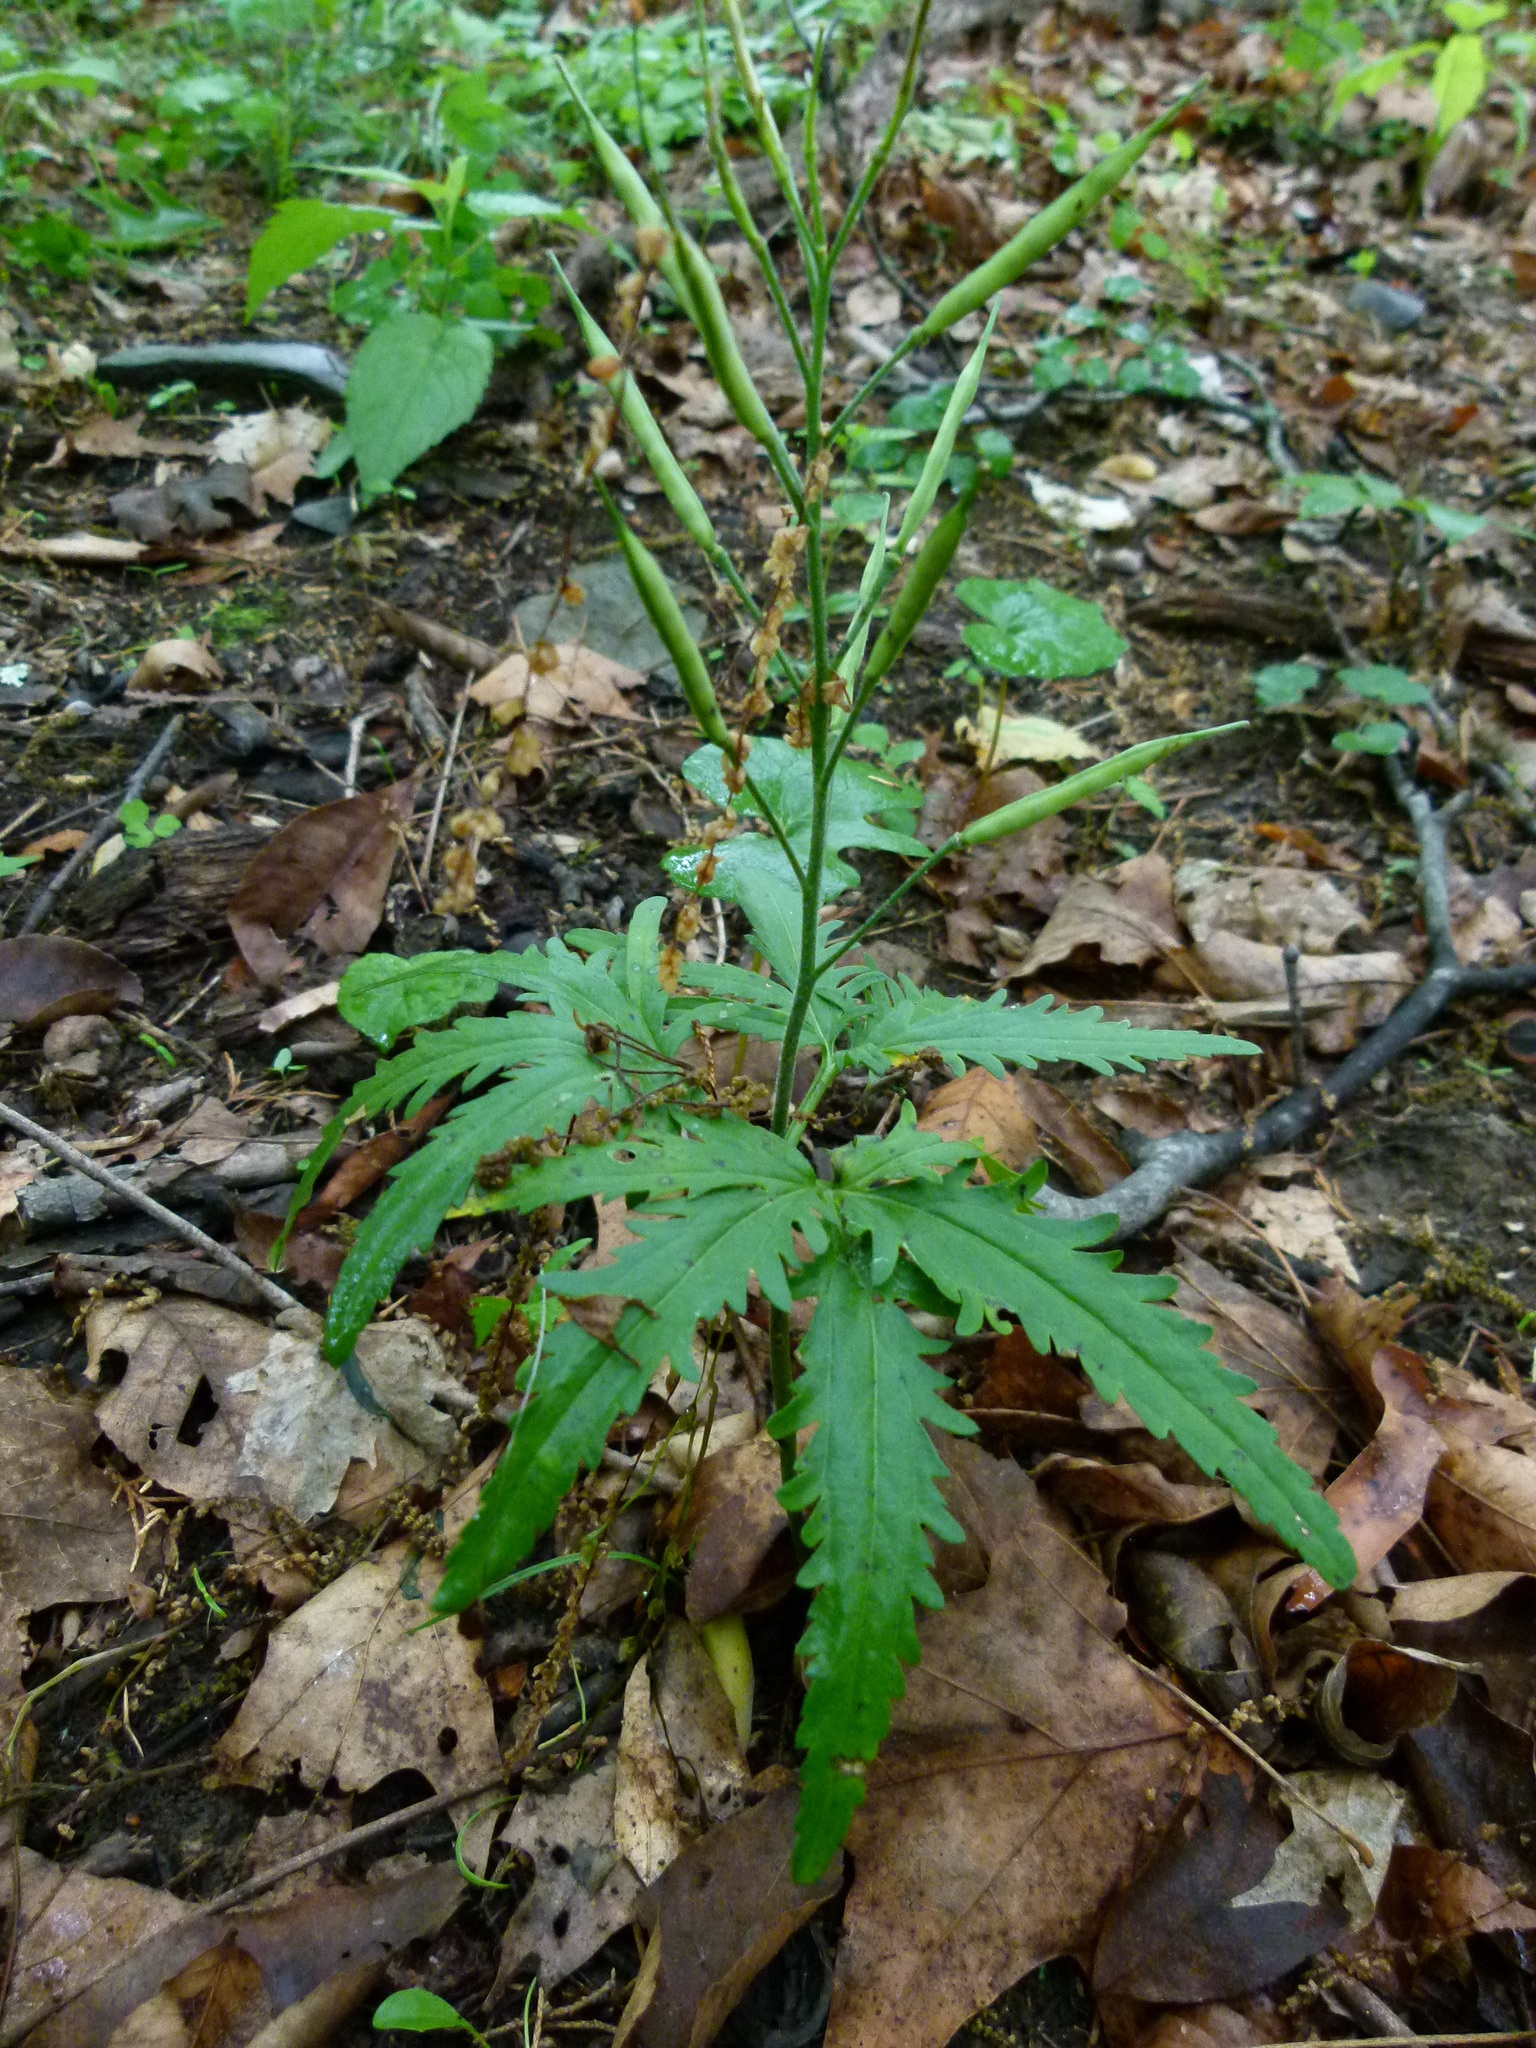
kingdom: Plantae
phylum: Tracheophyta
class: Magnoliopsida
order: Brassicales
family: Brassicaceae
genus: Cardamine
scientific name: Cardamine concatenata
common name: Cut-leaf toothcup
